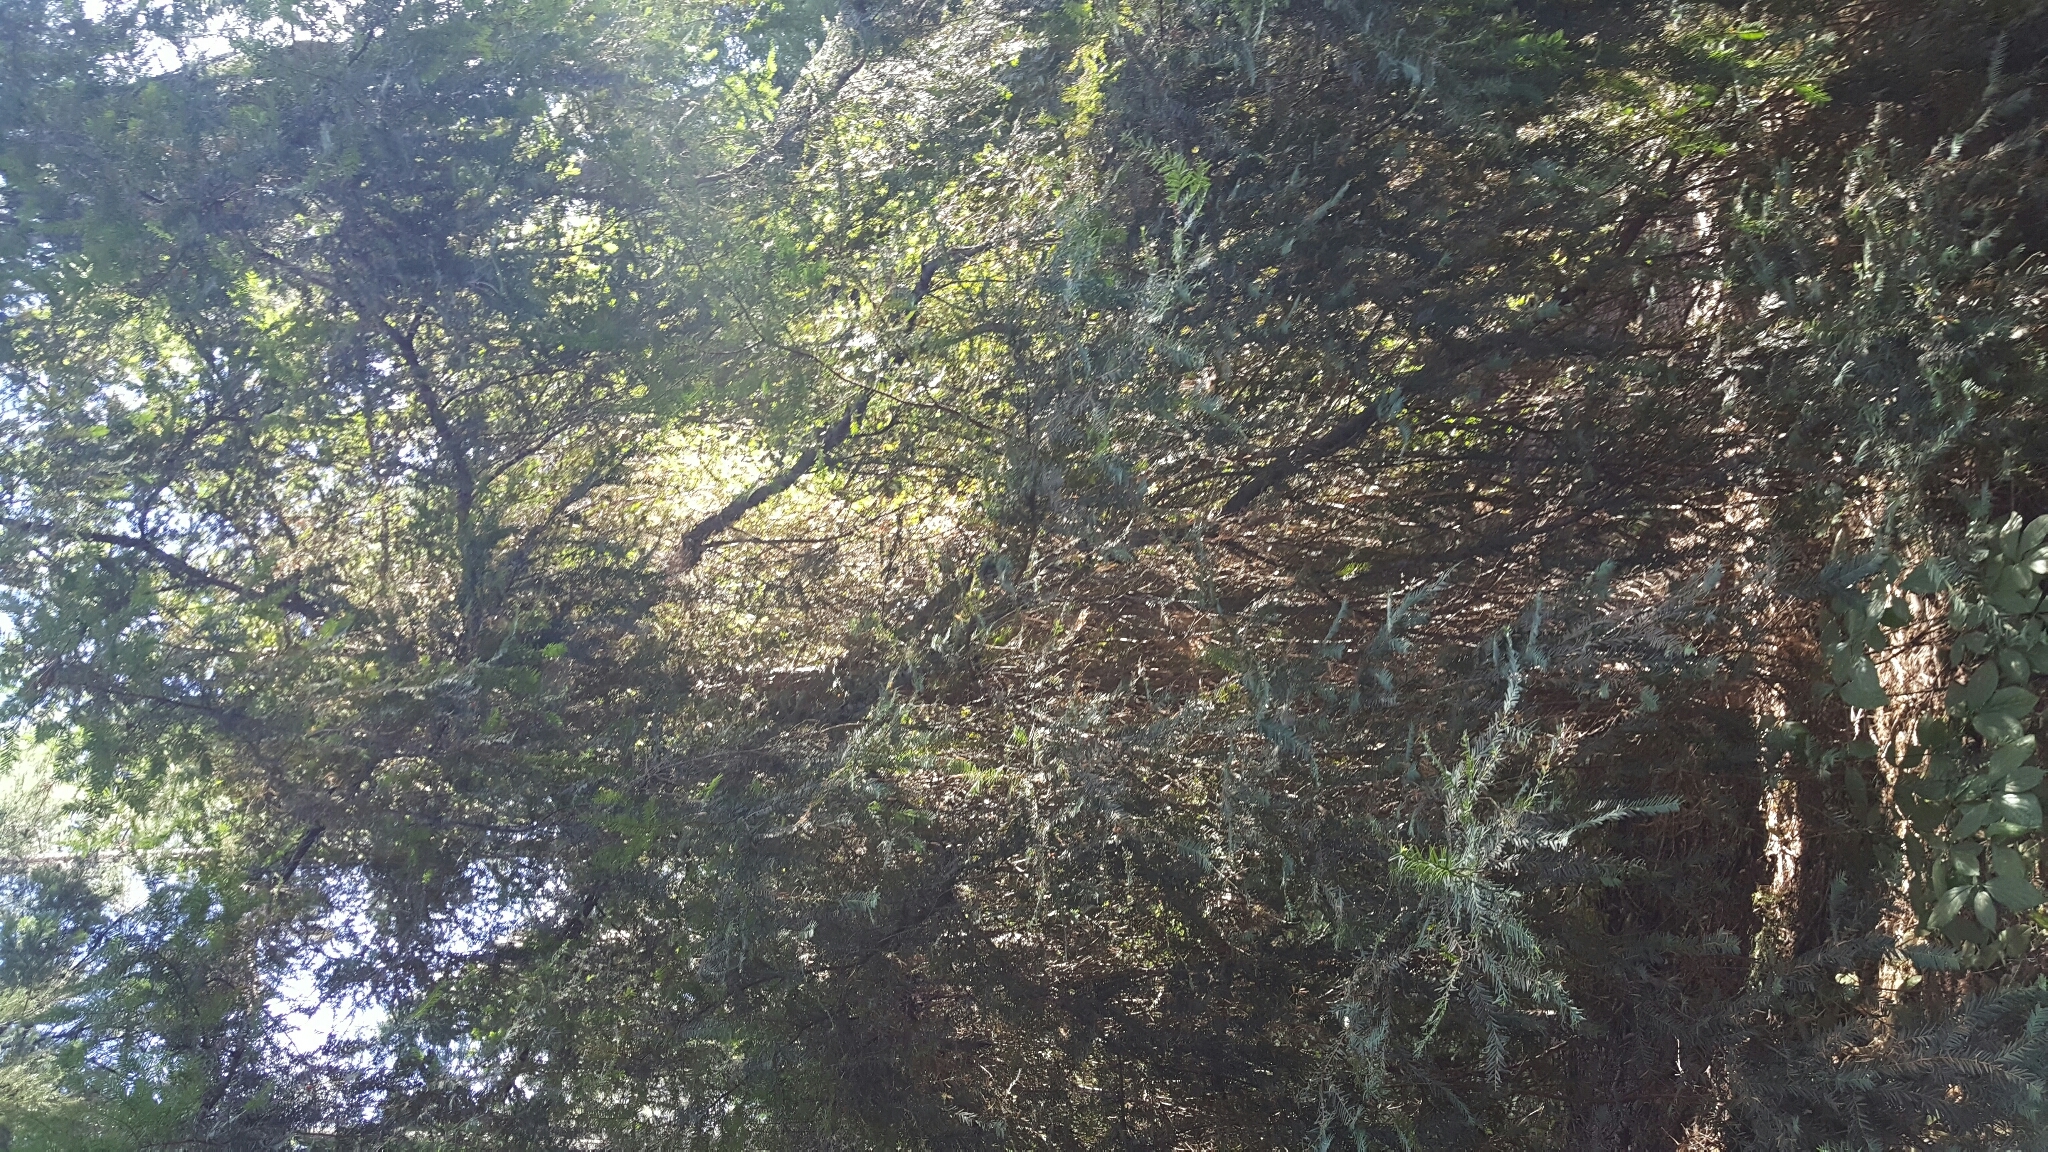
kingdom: Plantae
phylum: Tracheophyta
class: Pinopsida
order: Pinales
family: Taxaceae
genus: Taxus
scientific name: Taxus brevifolia
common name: Pacific yew
